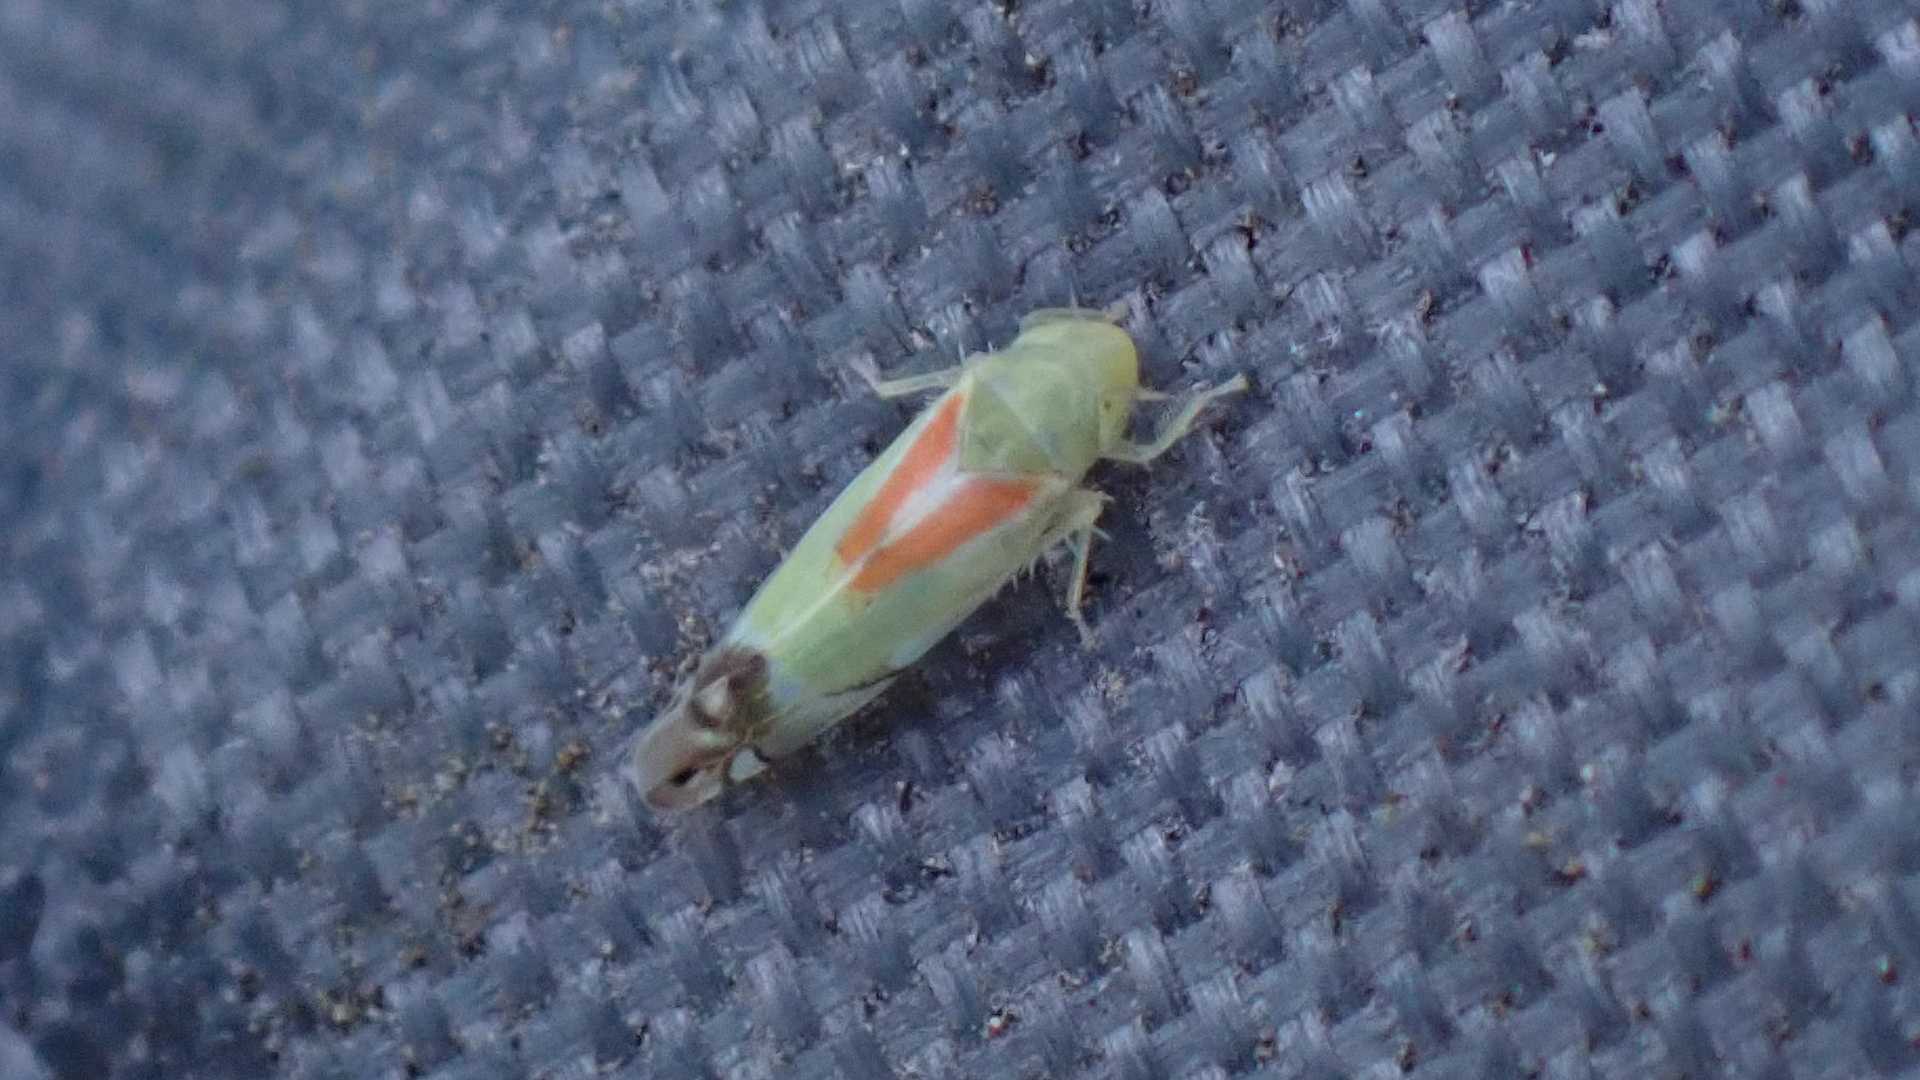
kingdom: Animalia
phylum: Arthropoda
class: Insecta
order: Hemiptera
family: Cicadellidae
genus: Zyginella
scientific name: Zyginella pulchra
